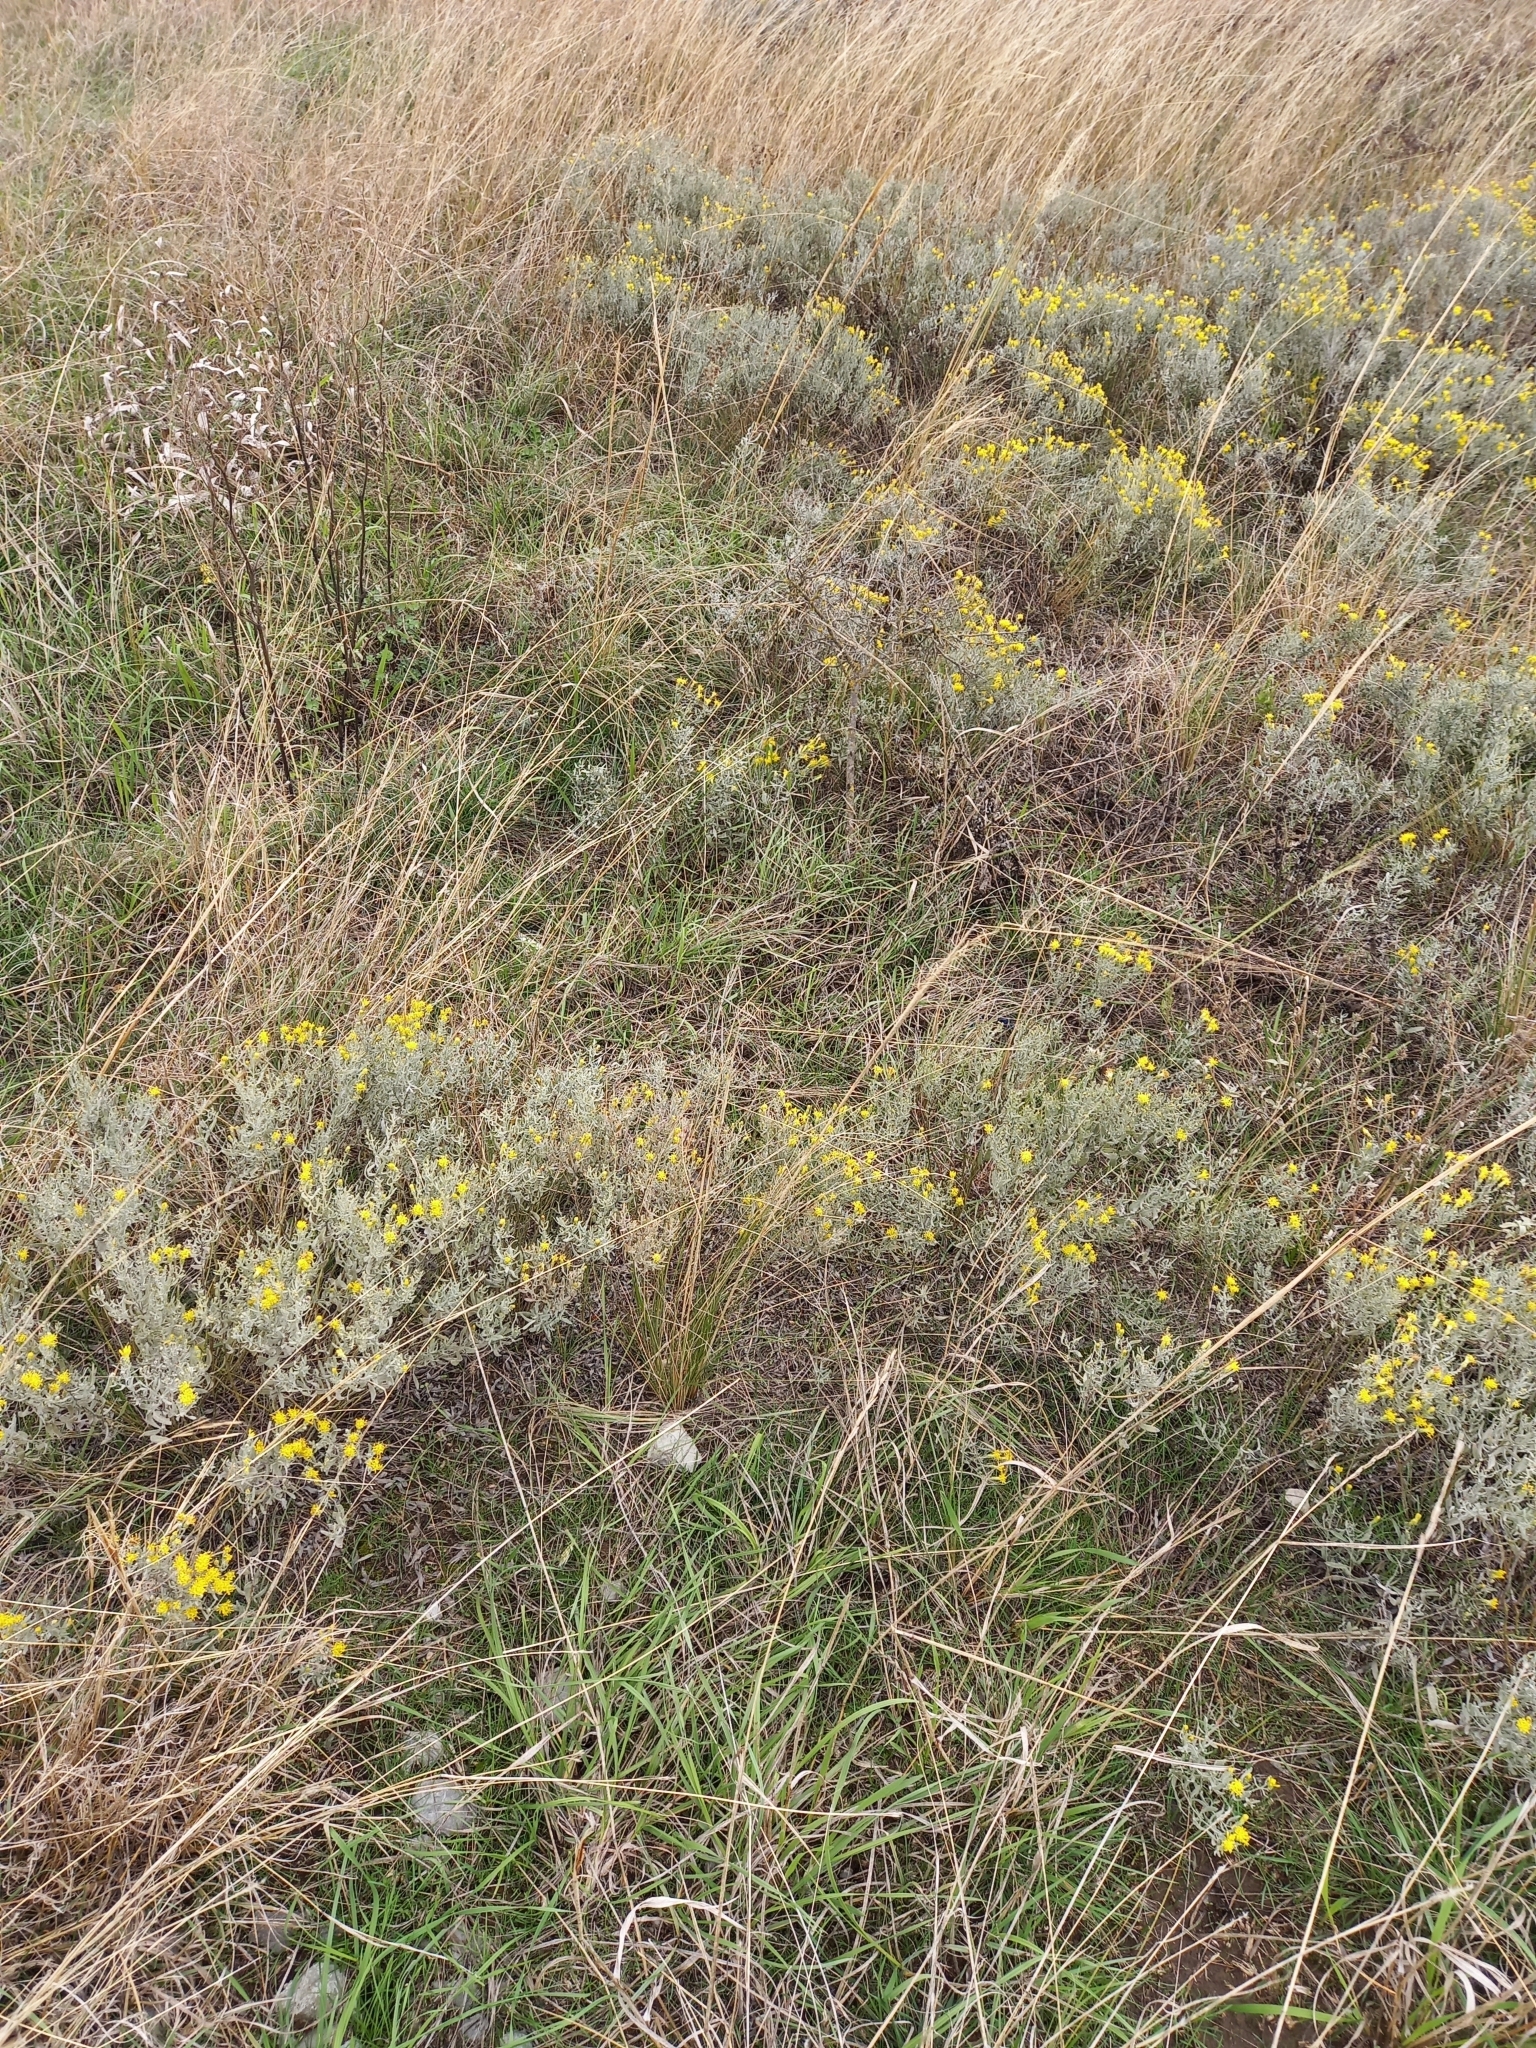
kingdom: Plantae
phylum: Tracheophyta
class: Magnoliopsida
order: Asterales
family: Asteraceae
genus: Galatella
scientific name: Galatella villosa
